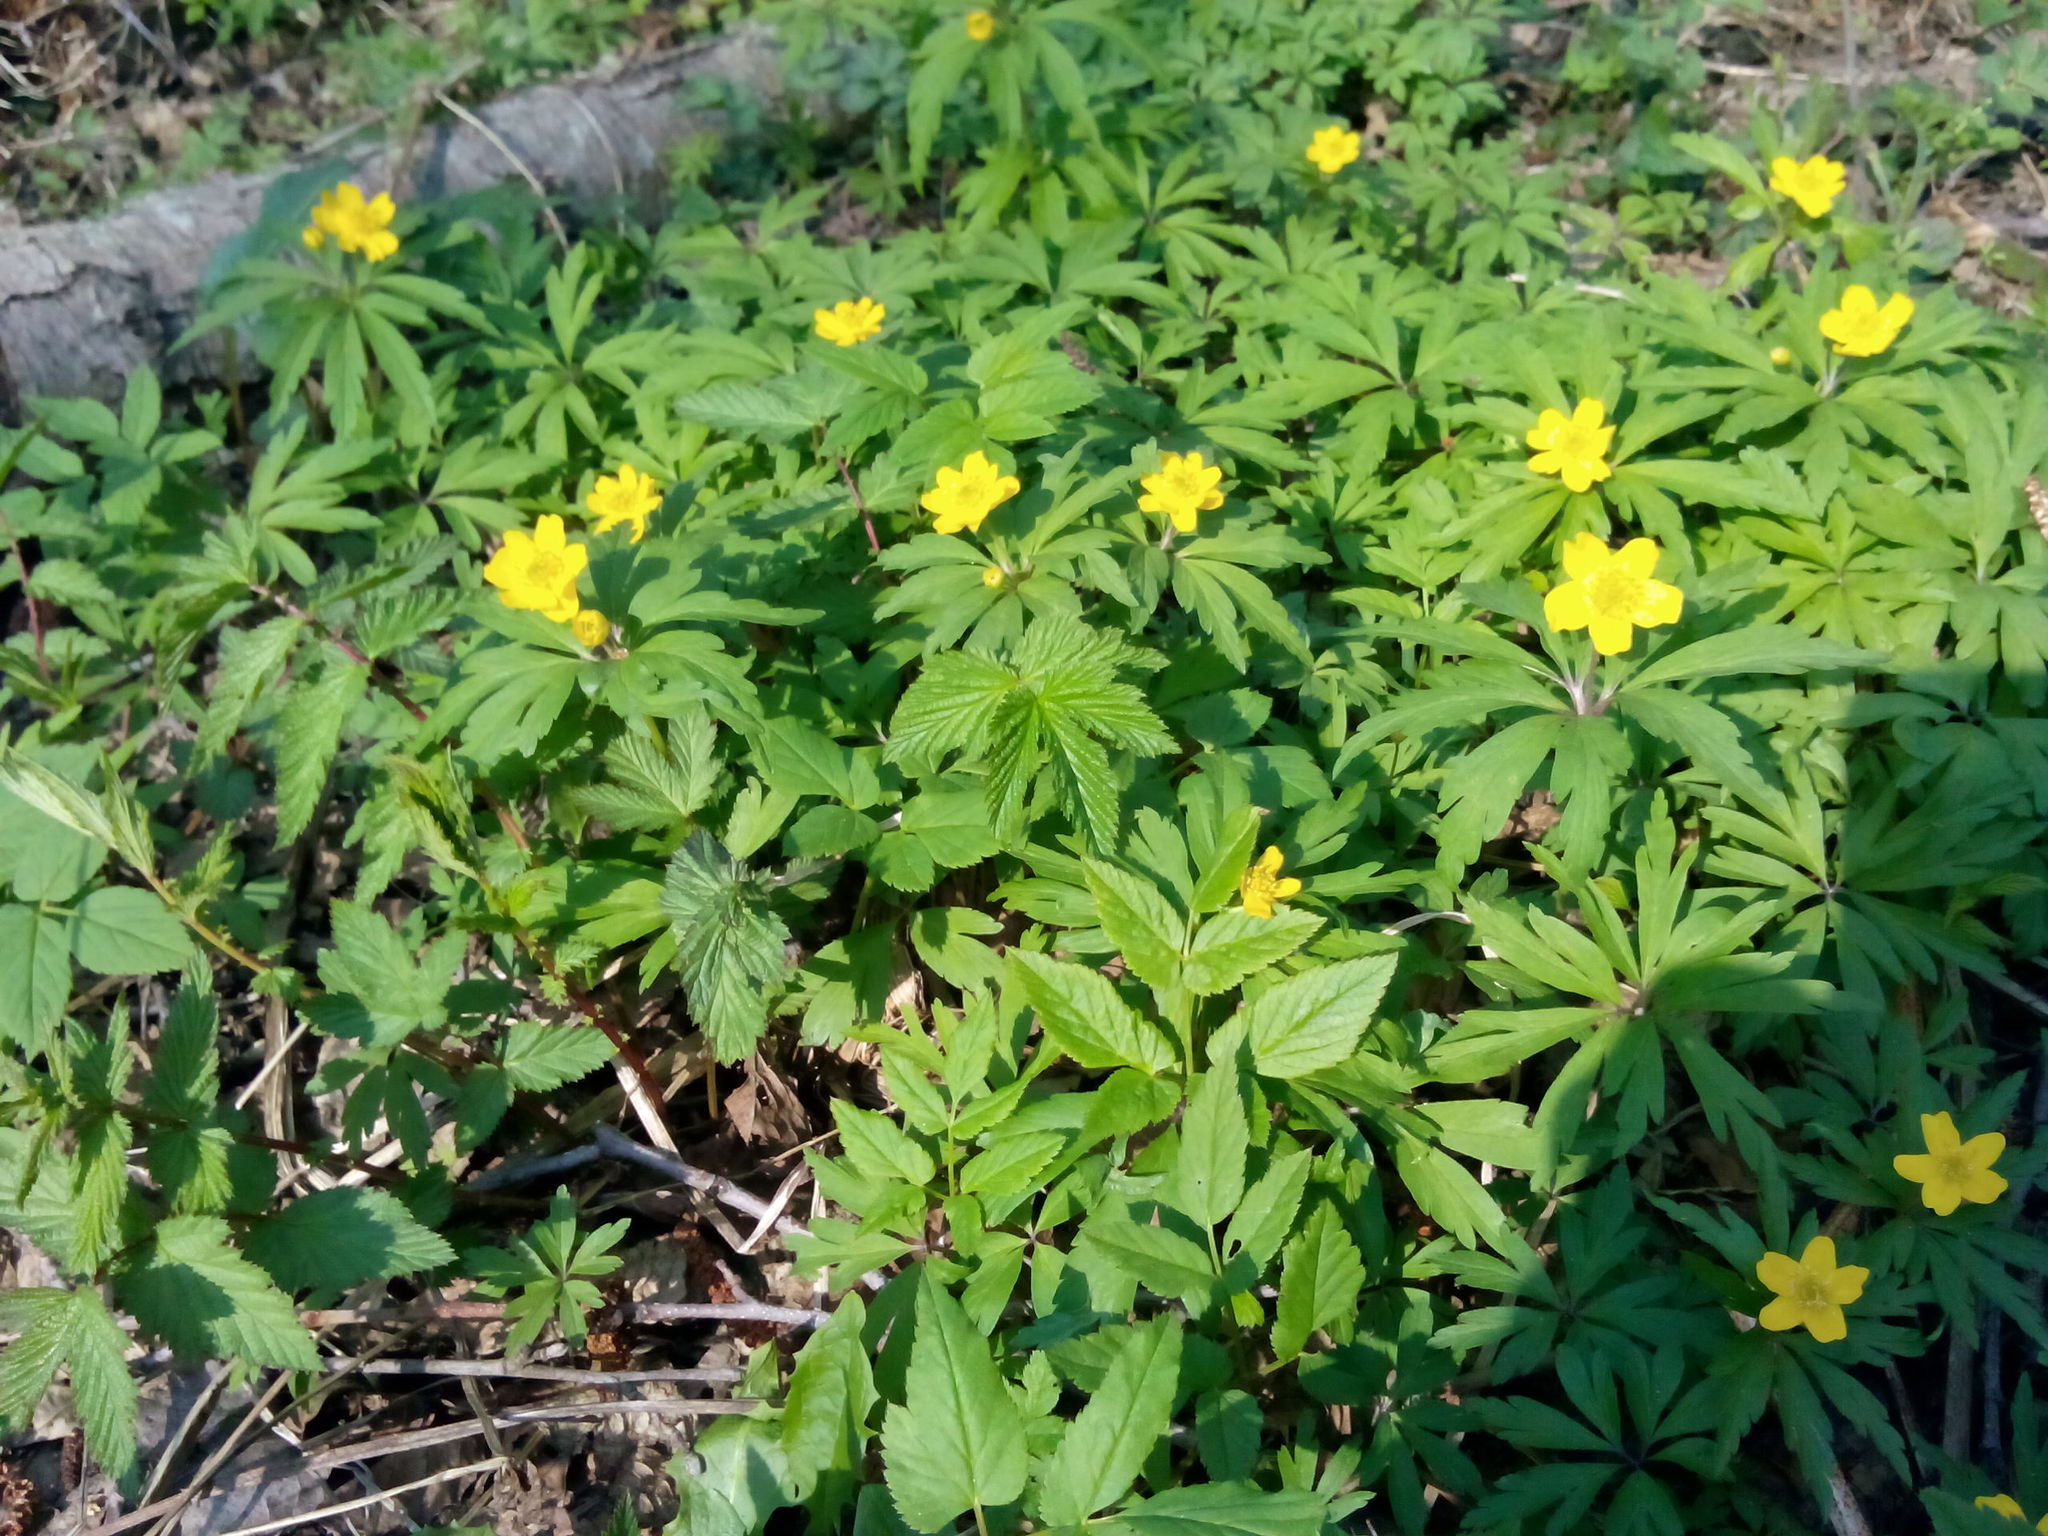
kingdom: Plantae
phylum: Tracheophyta
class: Magnoliopsida
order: Ranunculales
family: Ranunculaceae
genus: Anemone
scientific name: Anemone ranunculoides
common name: Yellow anemone
